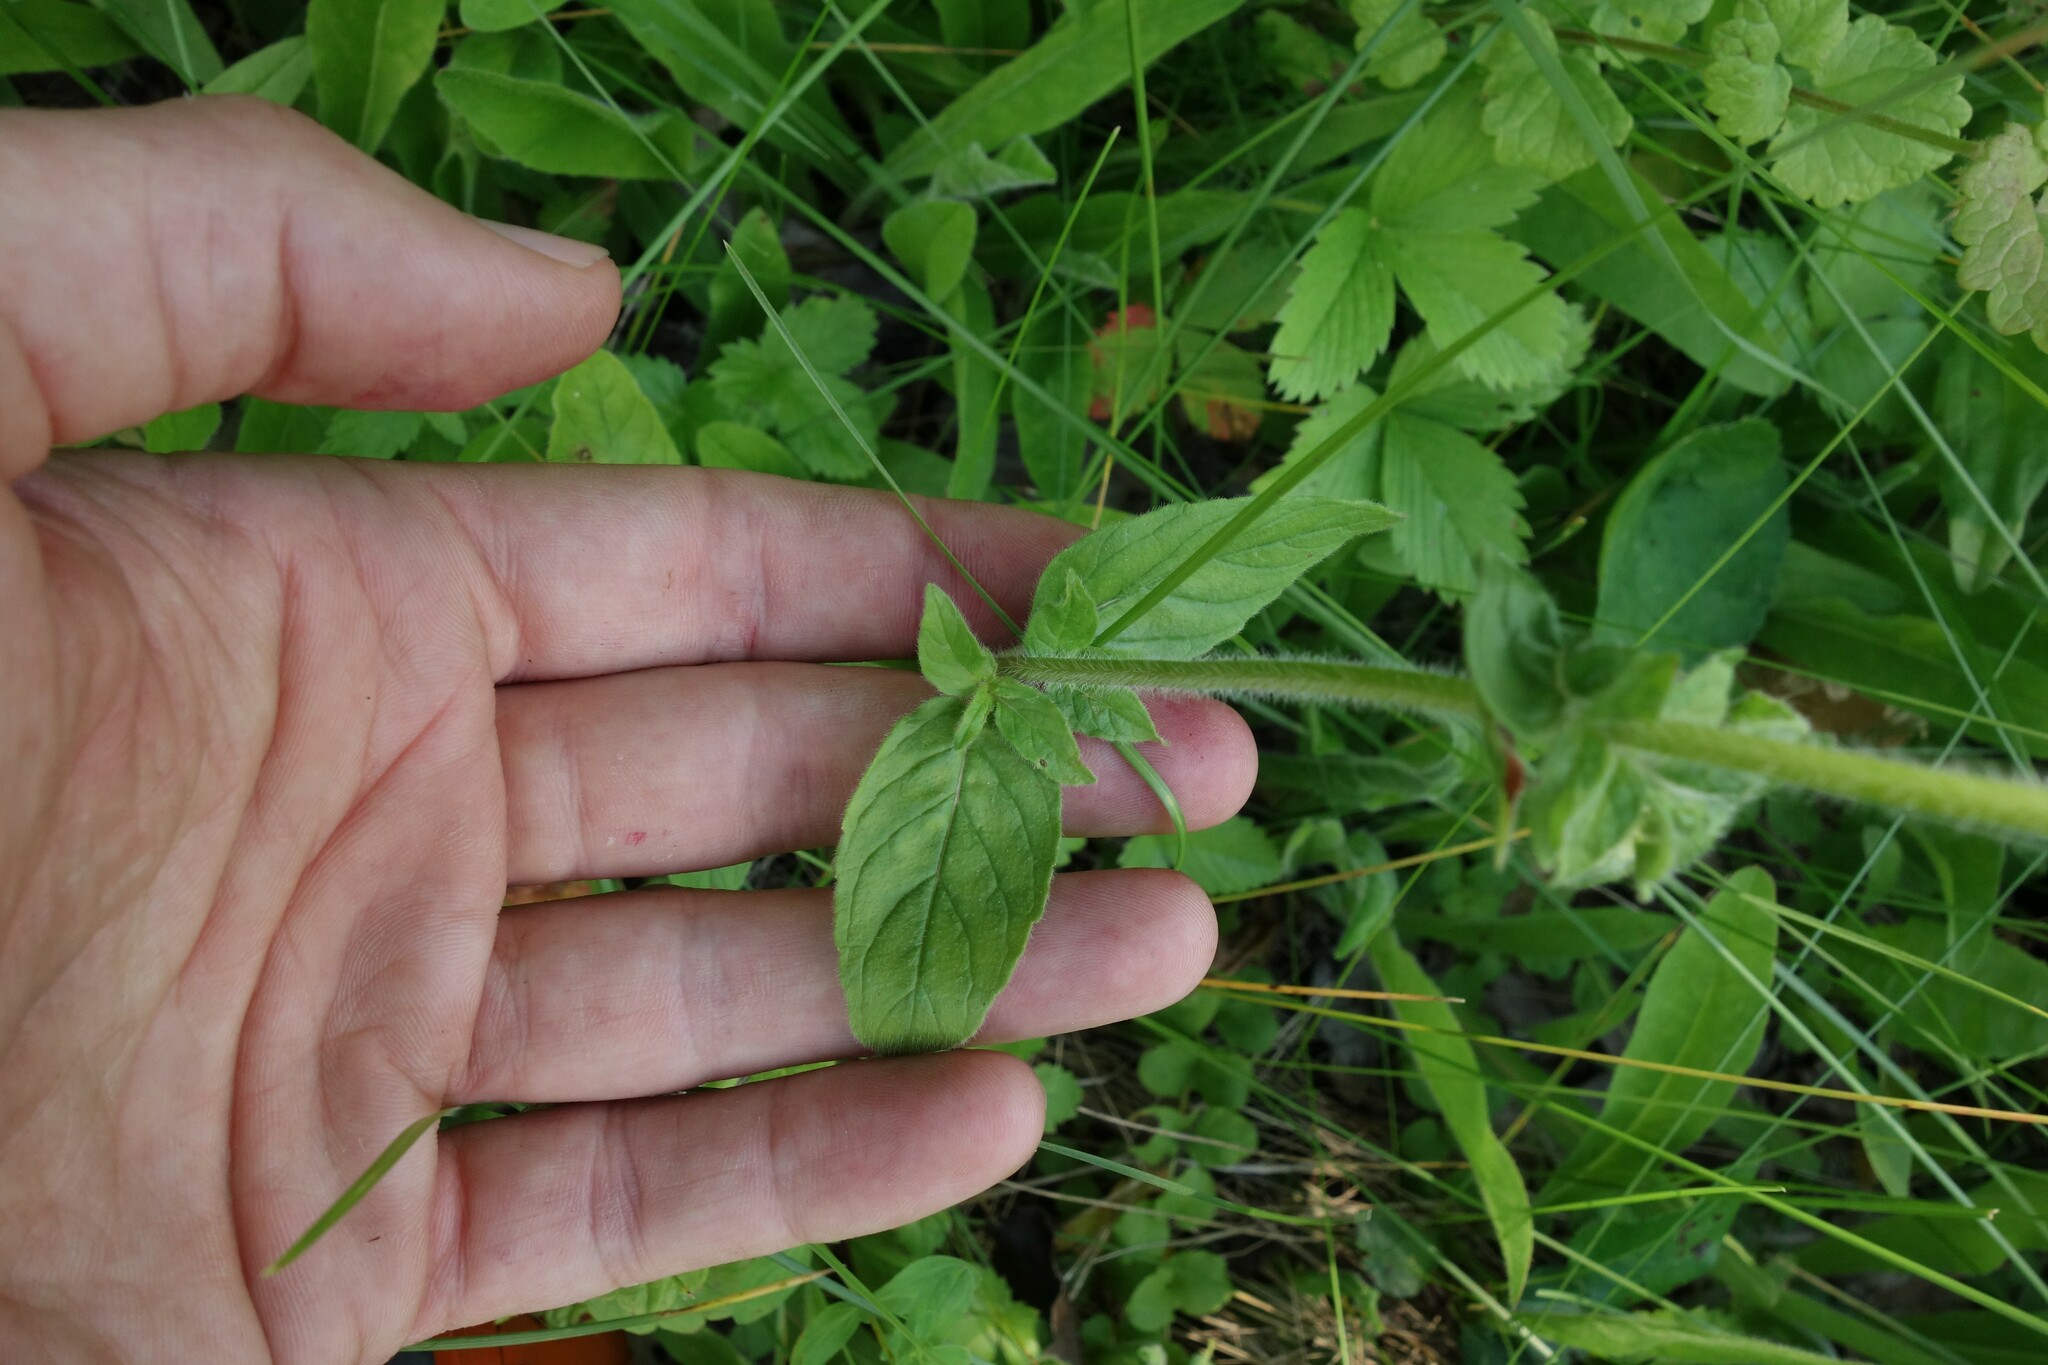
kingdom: Plantae
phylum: Tracheophyta
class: Magnoliopsida
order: Lamiales
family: Lamiaceae
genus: Clinopodium
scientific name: Clinopodium vulgare
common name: Wild basil
